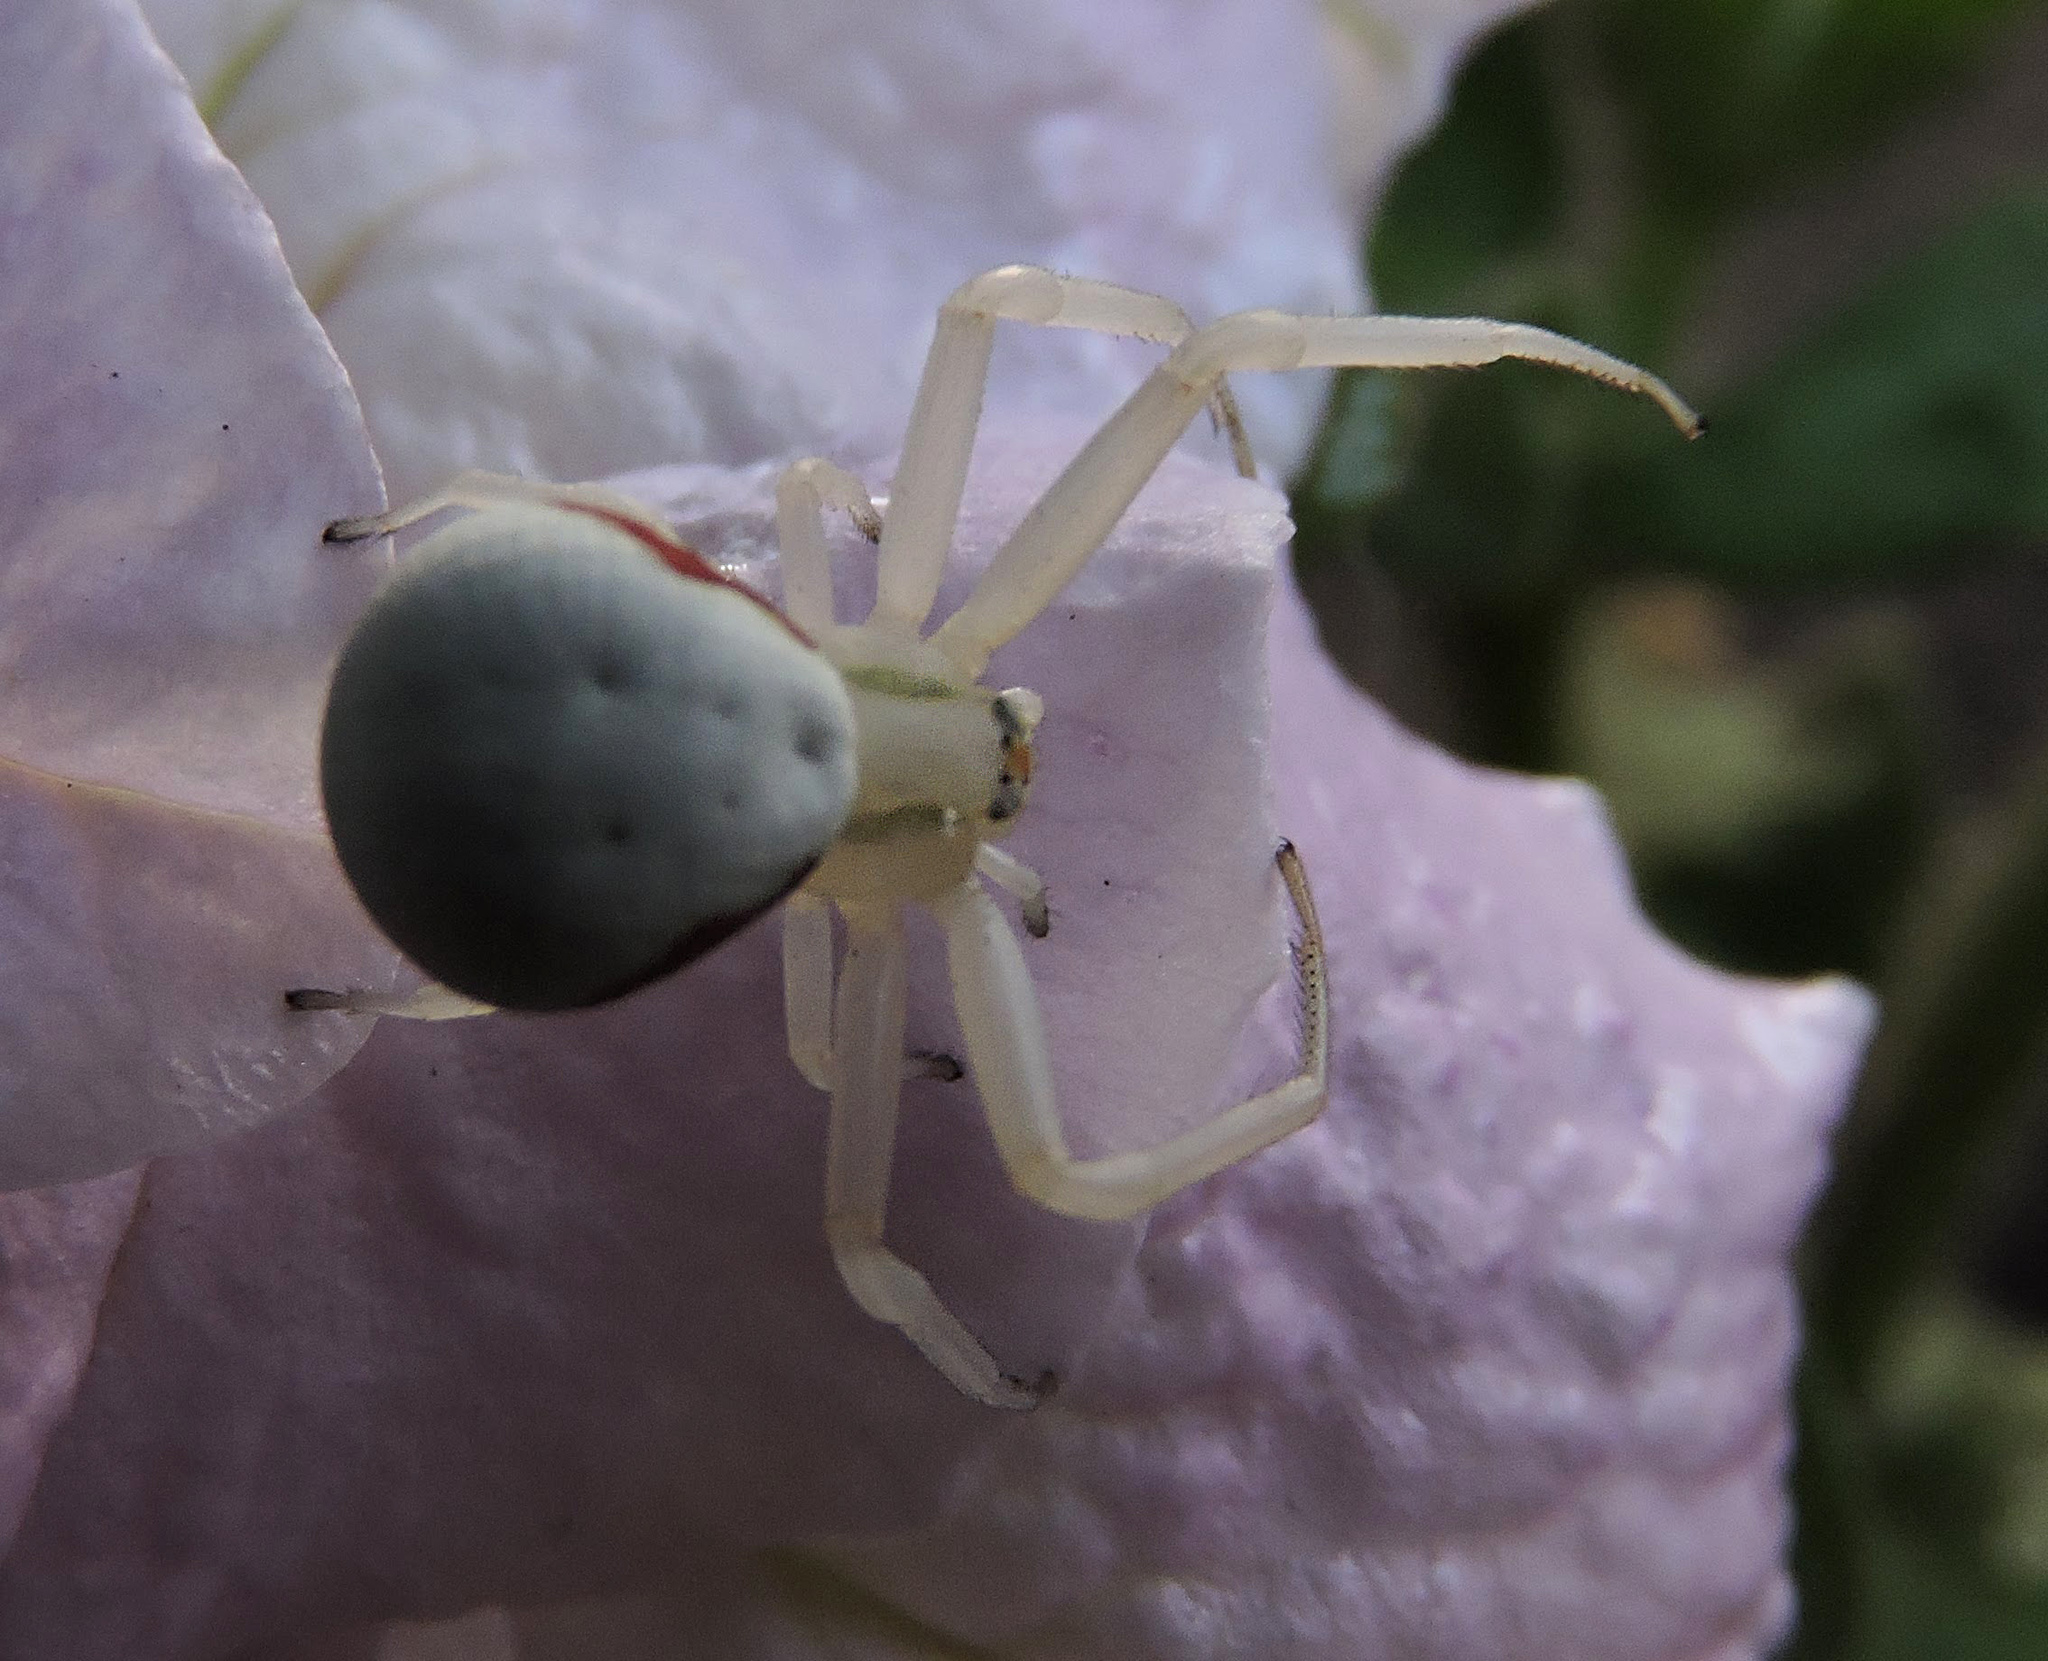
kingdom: Animalia
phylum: Arthropoda
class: Arachnida
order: Araneae
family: Thomisidae
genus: Misumena
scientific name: Misumena vatia
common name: Goldenrod crab spider
